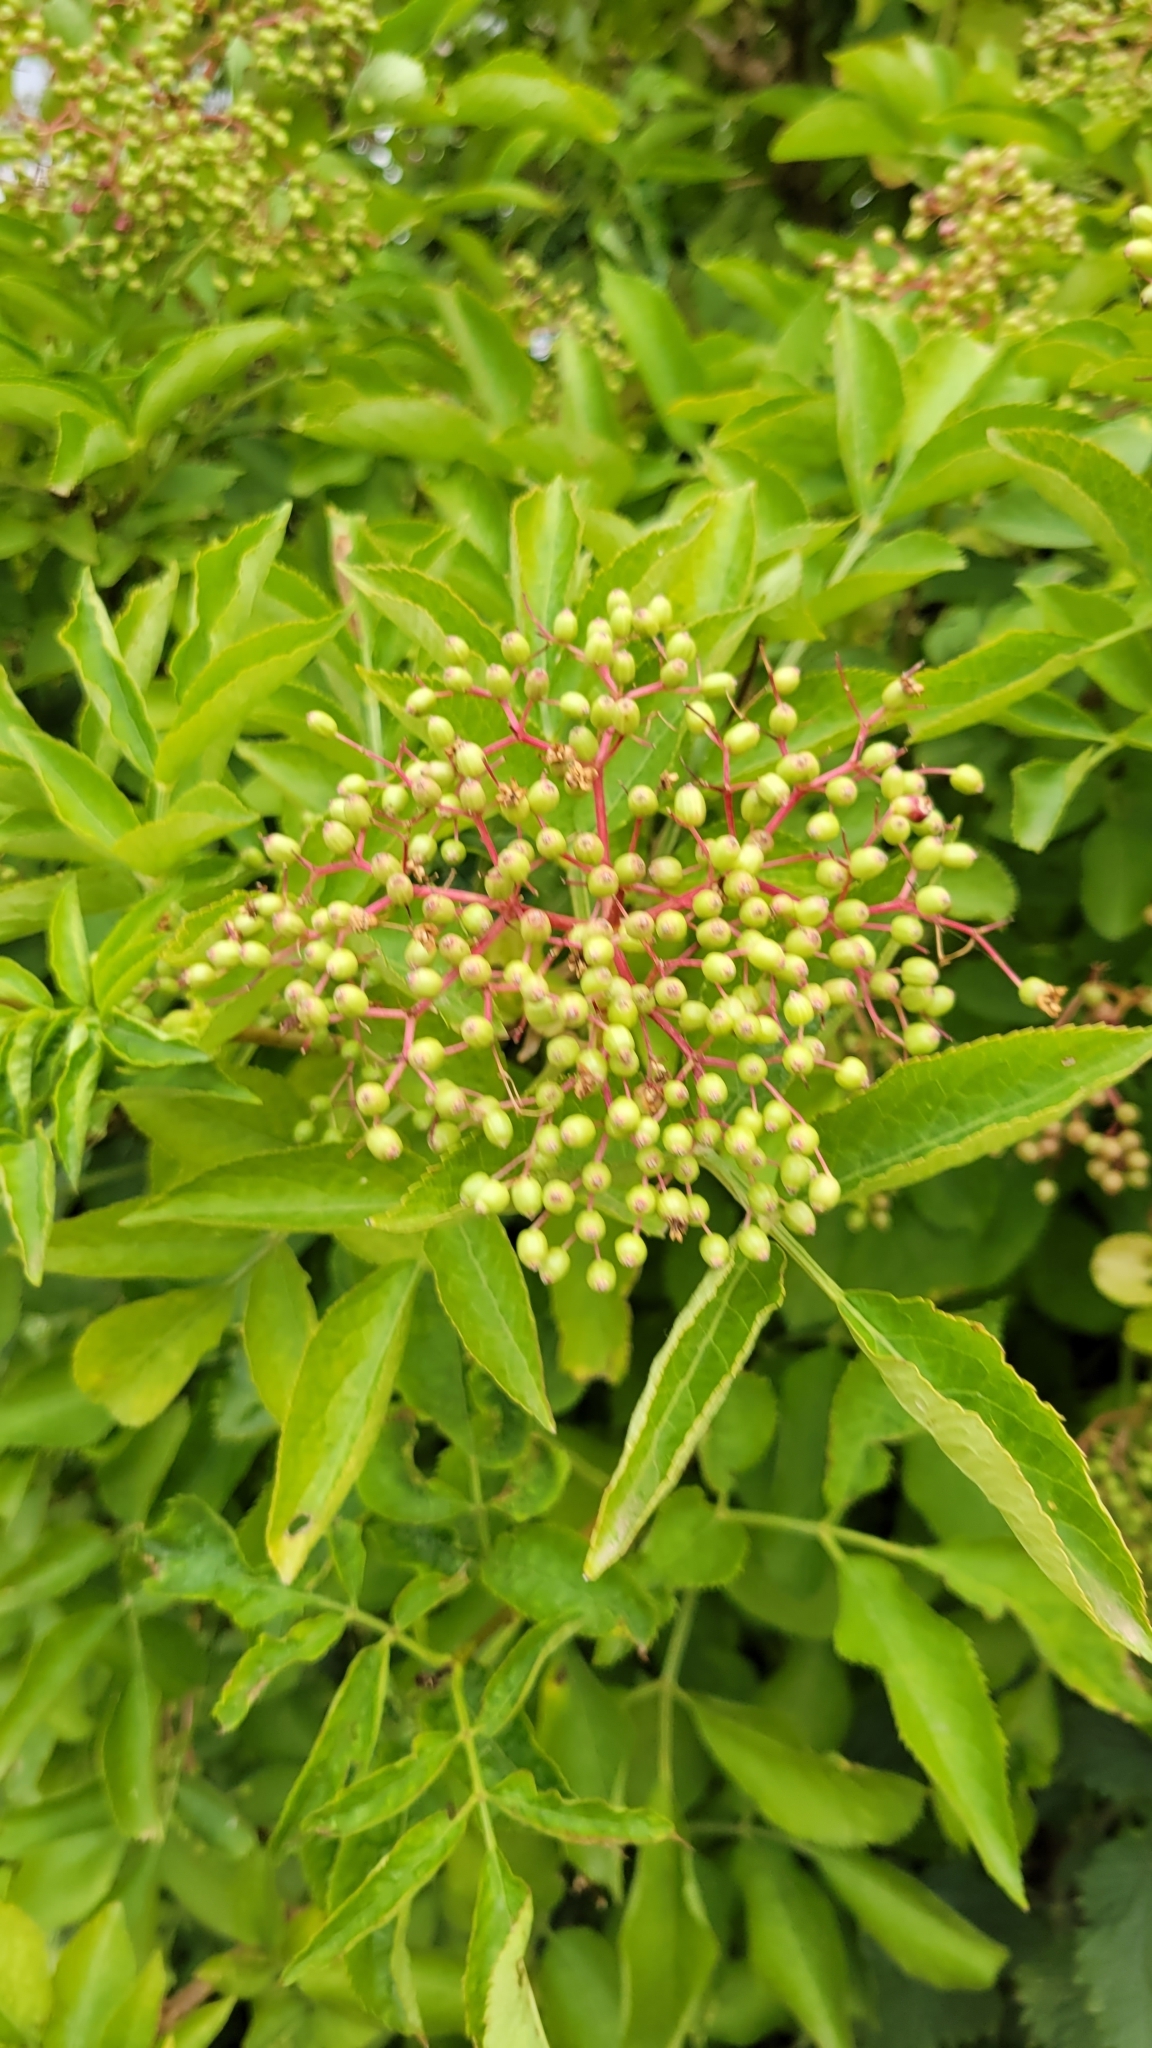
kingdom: Plantae
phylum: Tracheophyta
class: Magnoliopsida
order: Dipsacales
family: Viburnaceae
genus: Sambucus
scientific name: Sambucus nigra
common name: Elder
